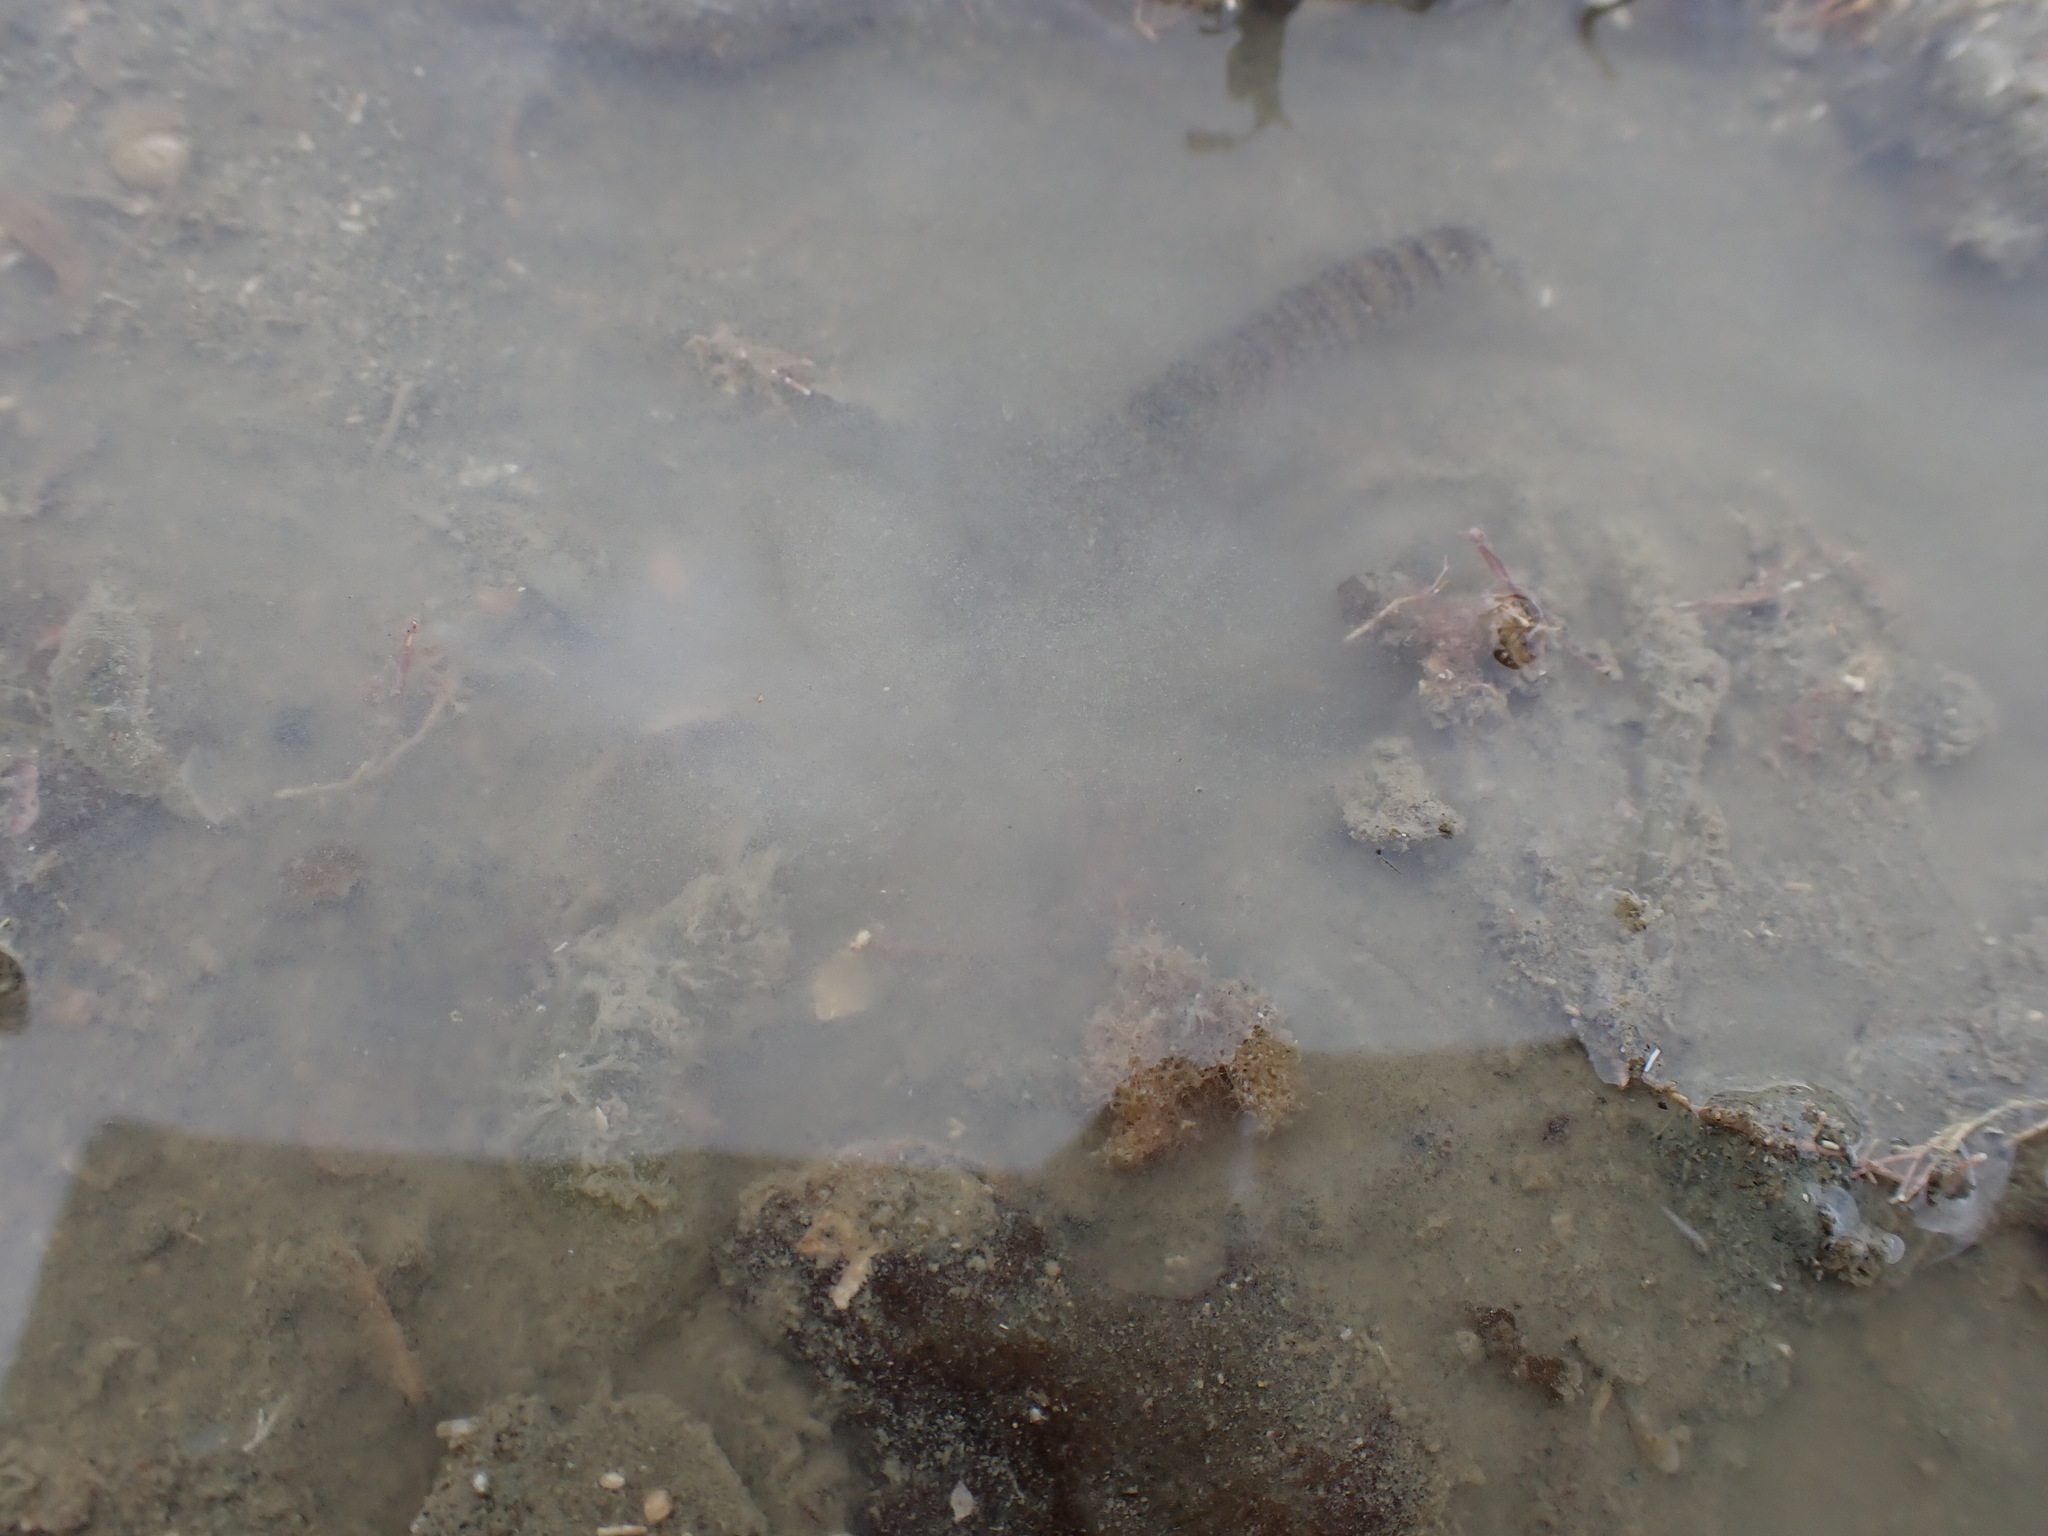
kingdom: Animalia
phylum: Arthropoda
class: Malacostraca
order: Decapoda
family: Alpheidae
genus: Alpheus
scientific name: Alpheus richardsoni
